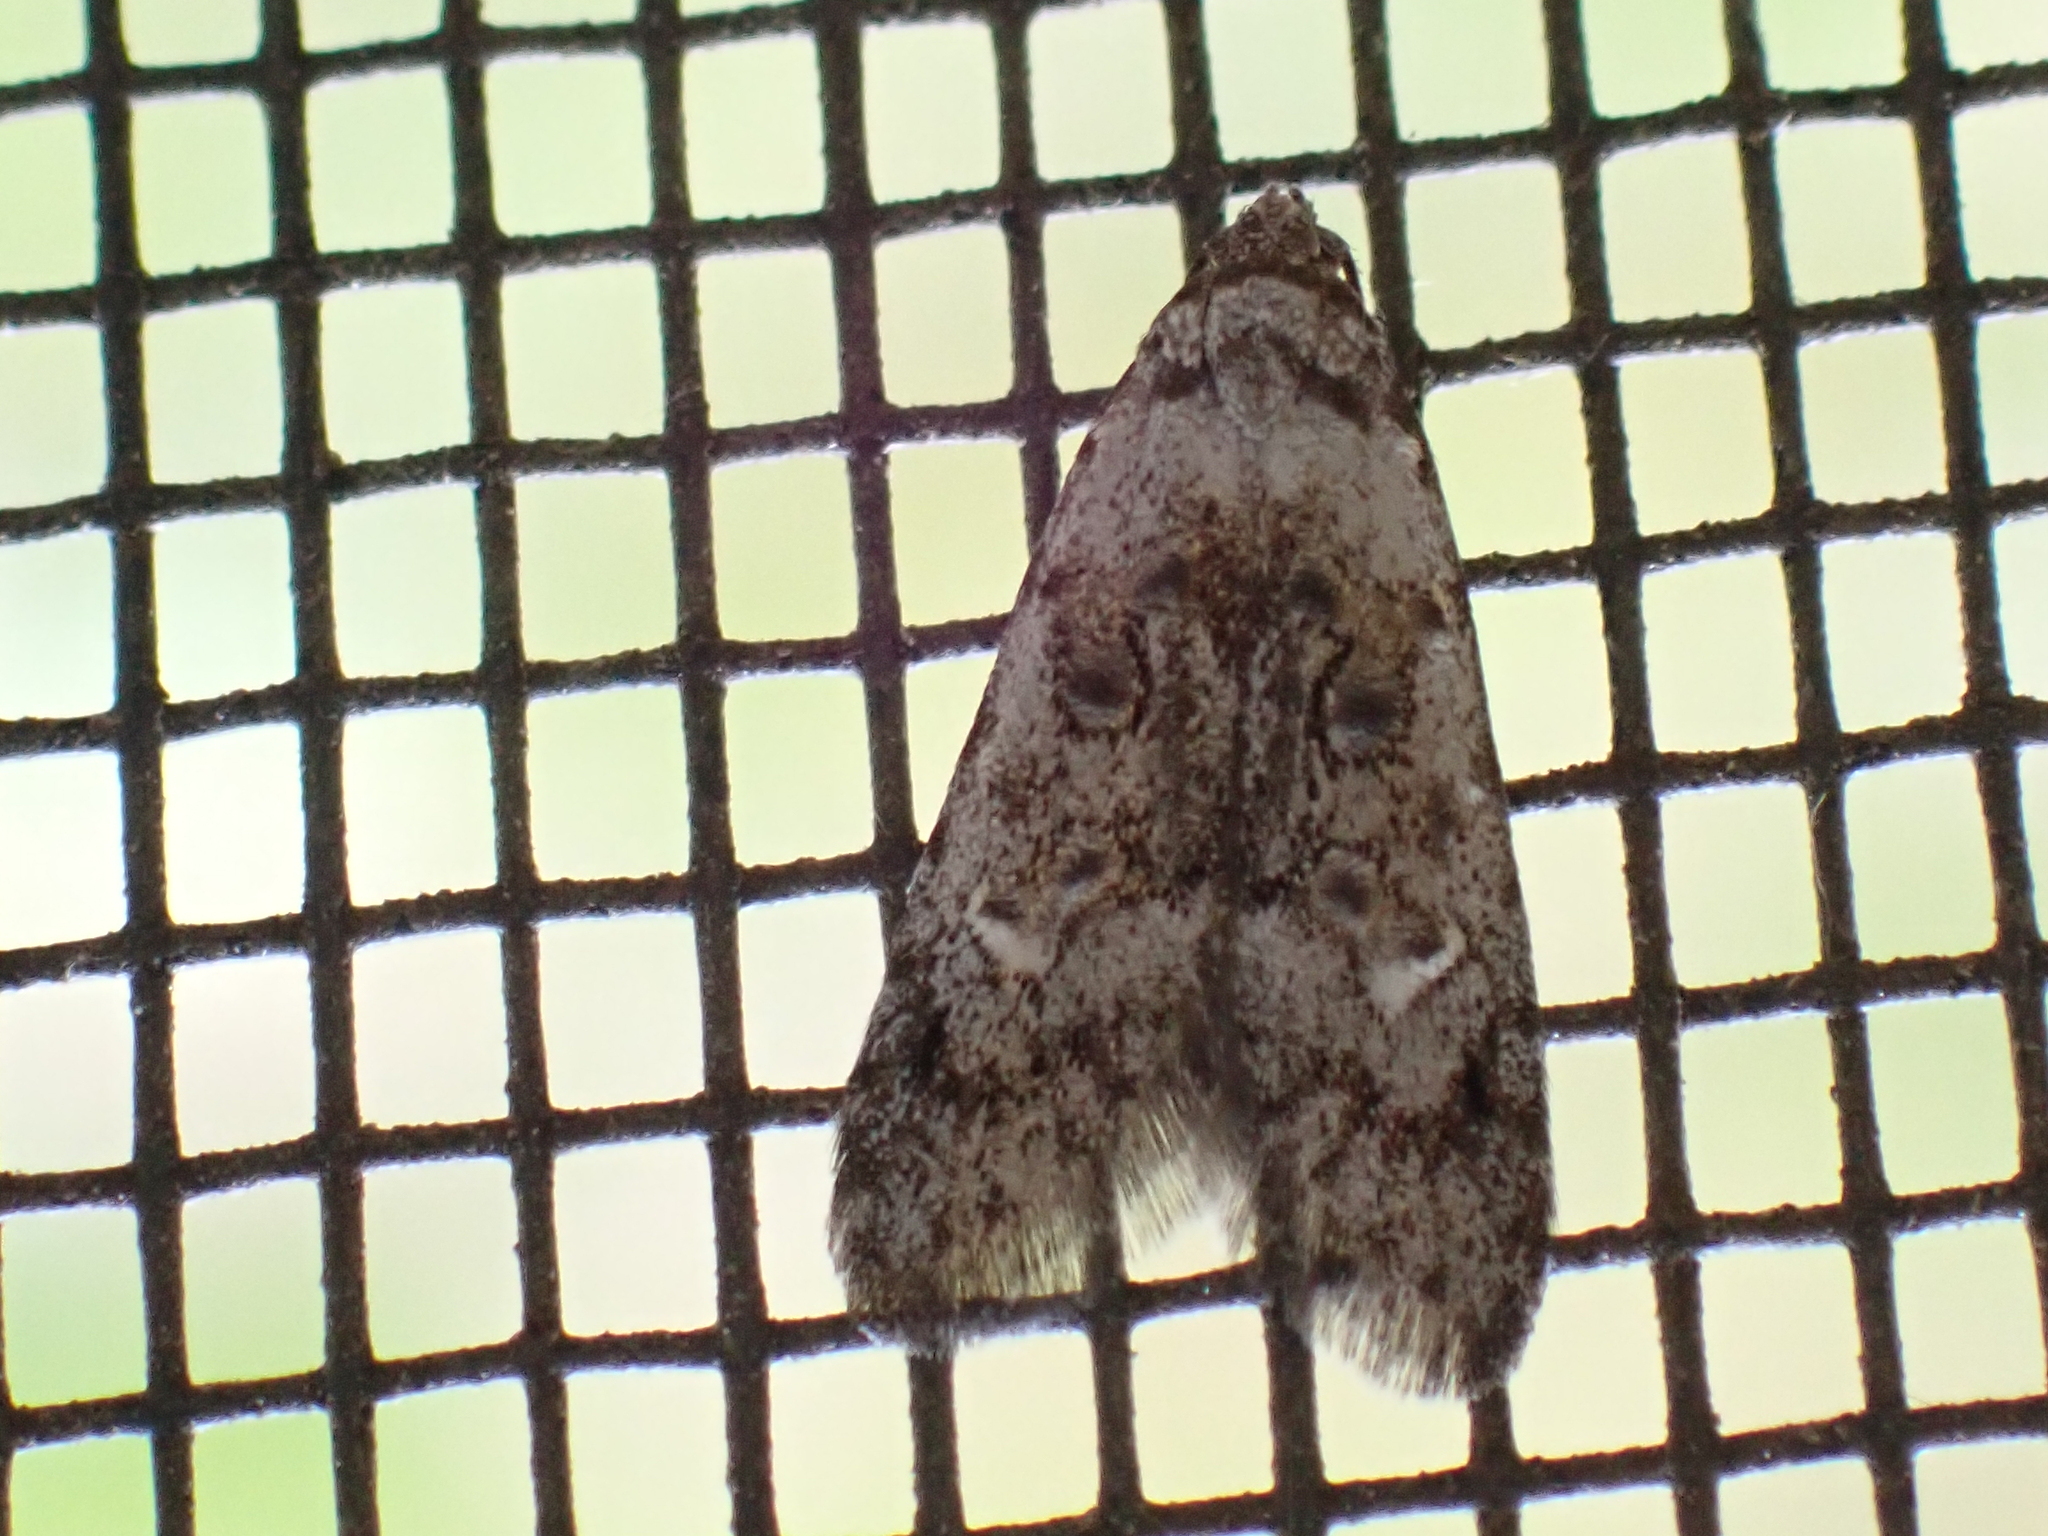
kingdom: Animalia
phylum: Arthropoda
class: Insecta
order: Lepidoptera
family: Carposinidae
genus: Bondia
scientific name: Bondia crescentella
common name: Crescent-marked bondia
